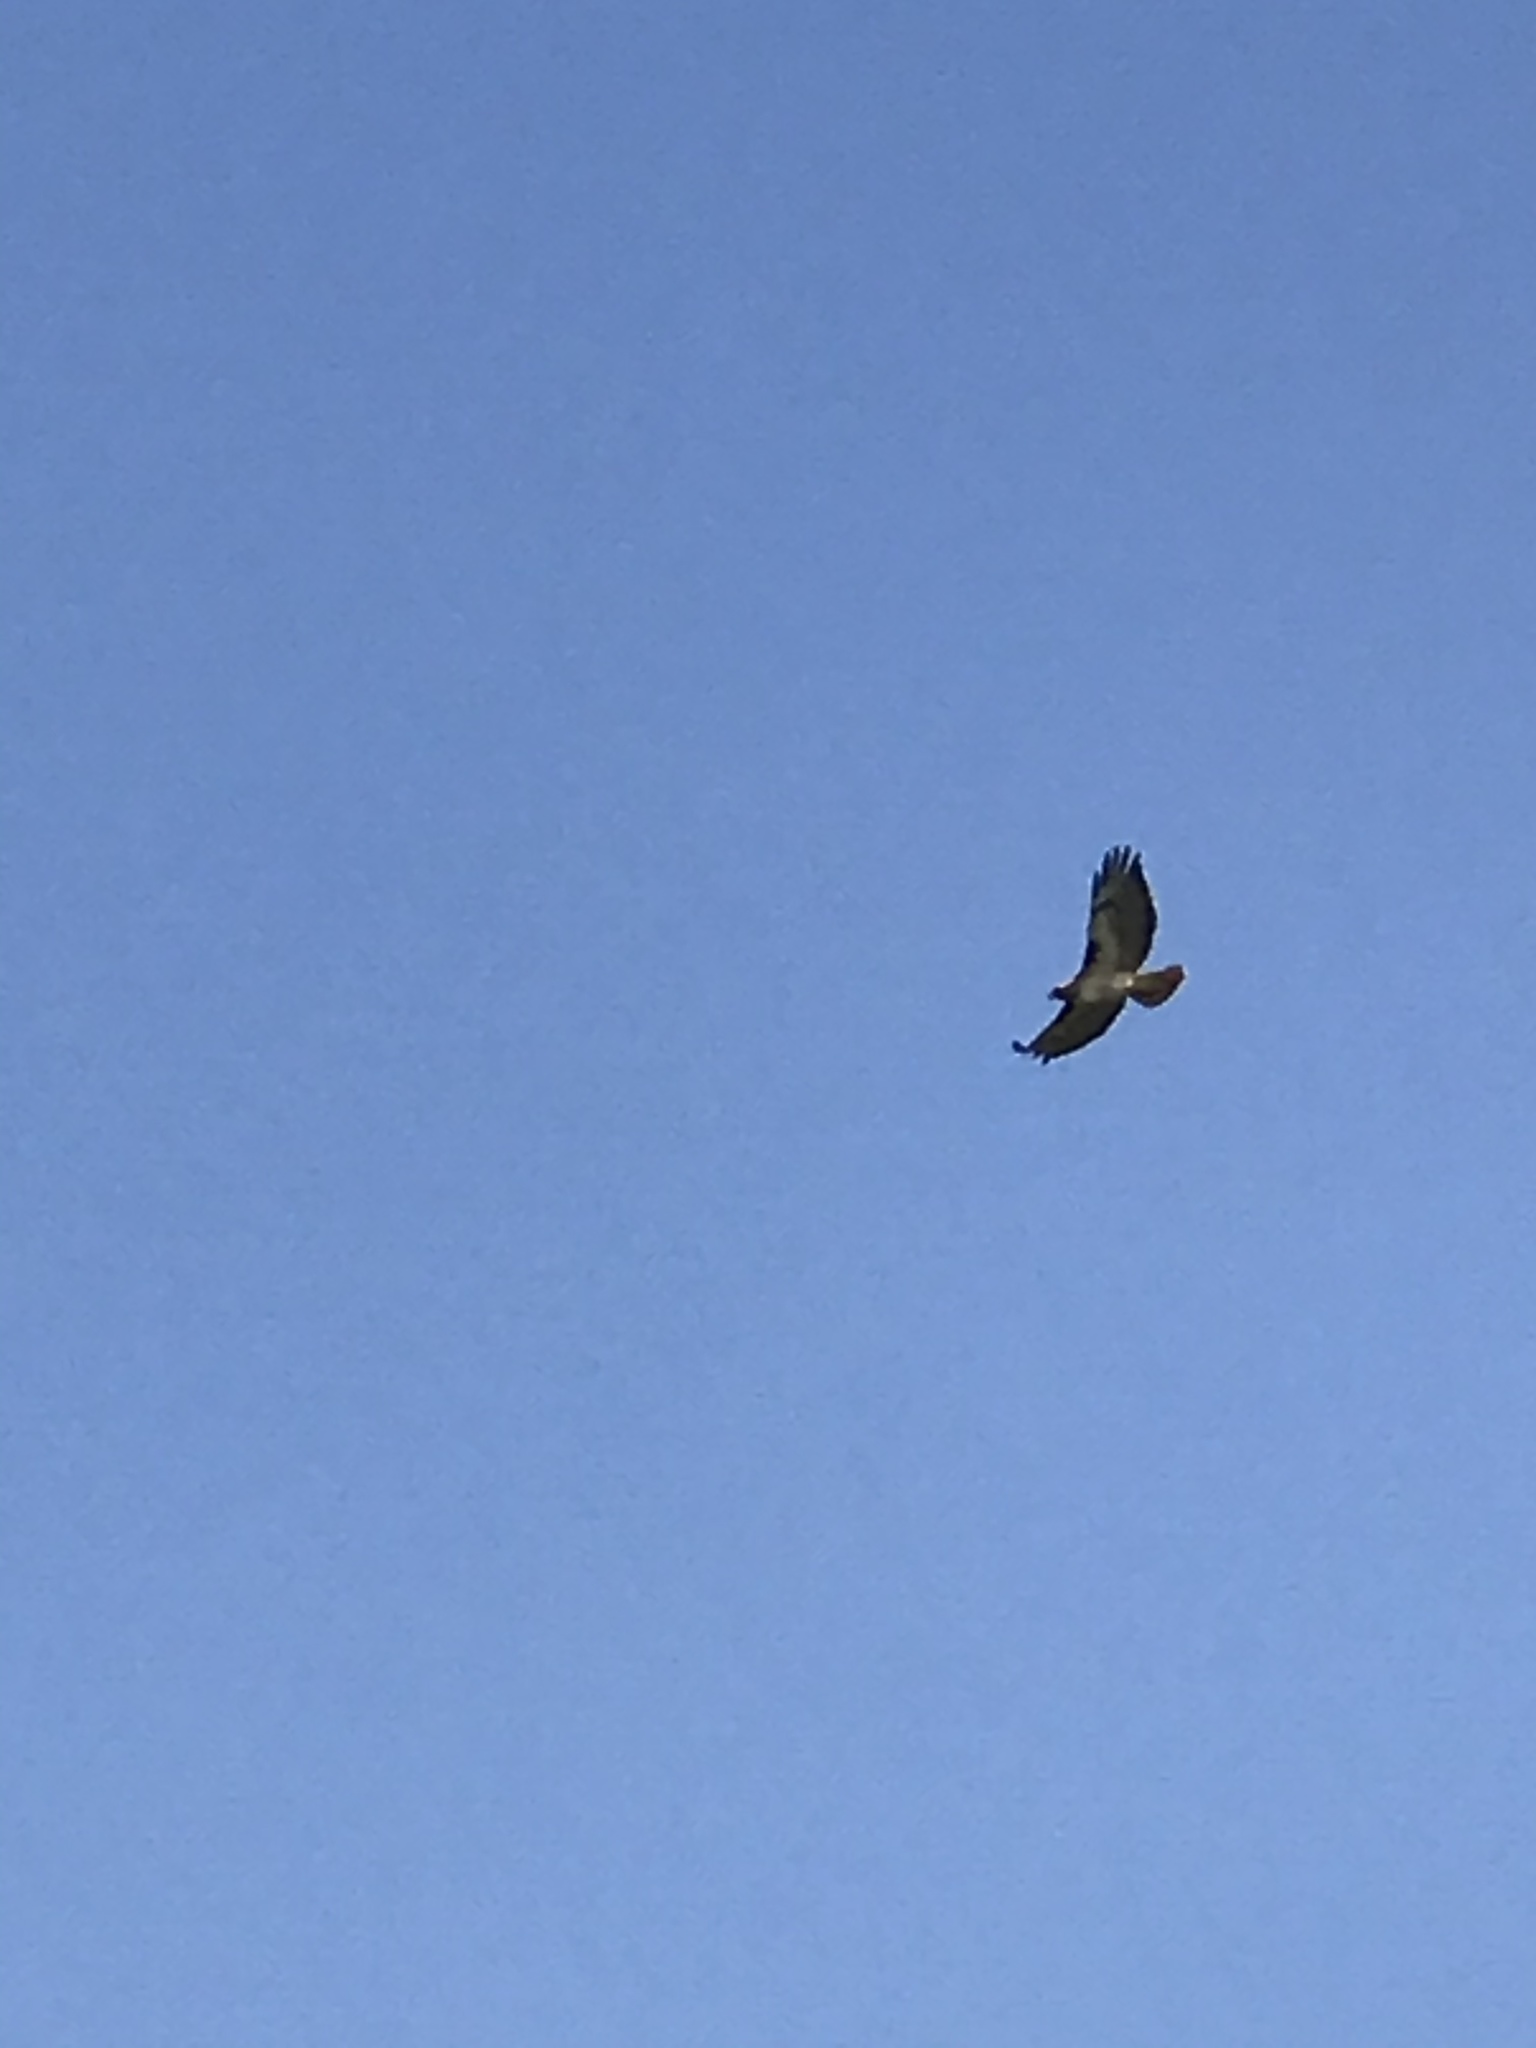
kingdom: Animalia
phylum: Chordata
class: Aves
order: Accipitriformes
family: Accipitridae
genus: Buteo
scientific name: Buteo jamaicensis
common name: Red-tailed hawk
